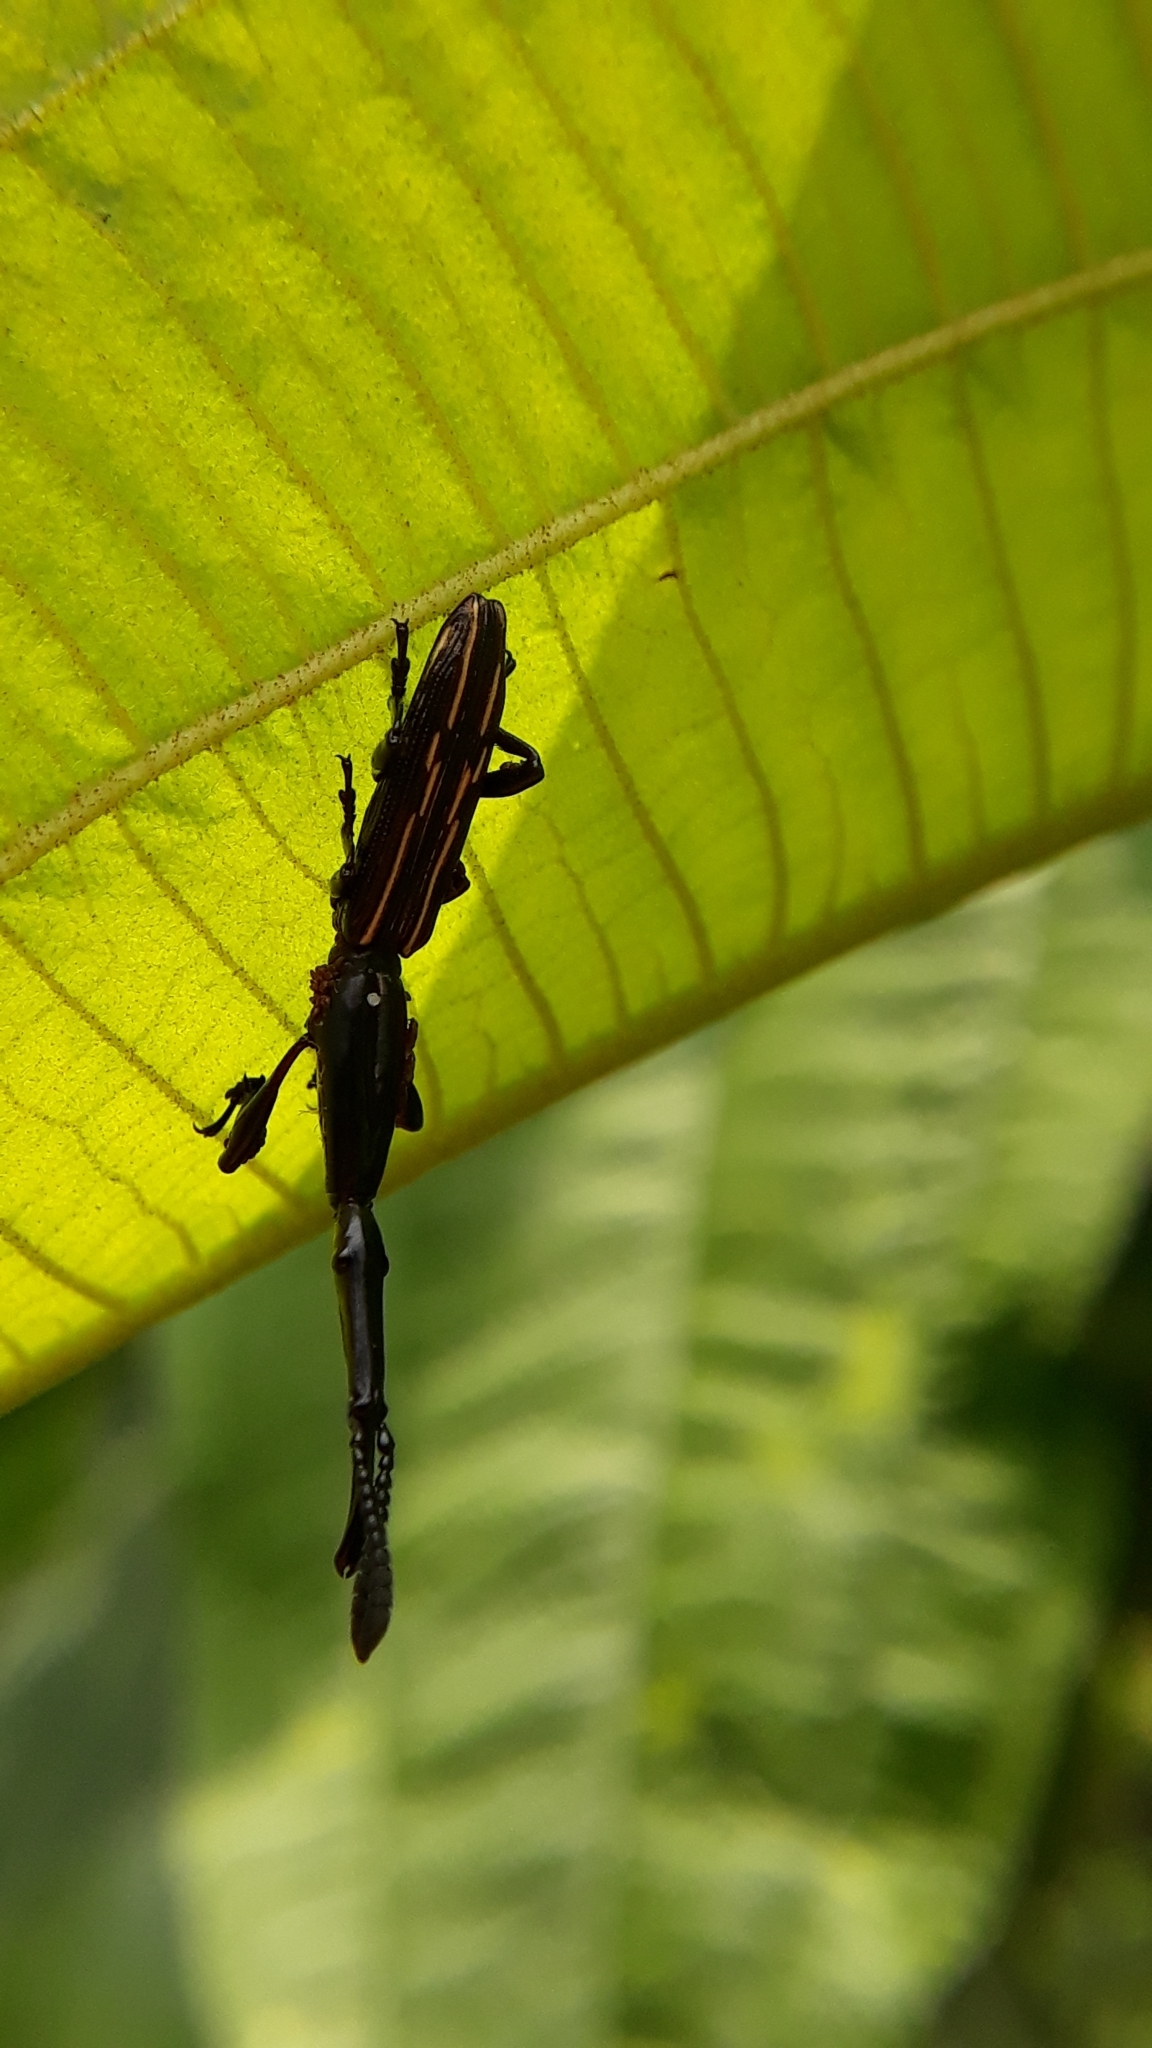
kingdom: Animalia
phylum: Arthropoda
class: Insecta
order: Coleoptera
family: Brentidae
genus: Brentus
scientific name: Brentus cylindrus
